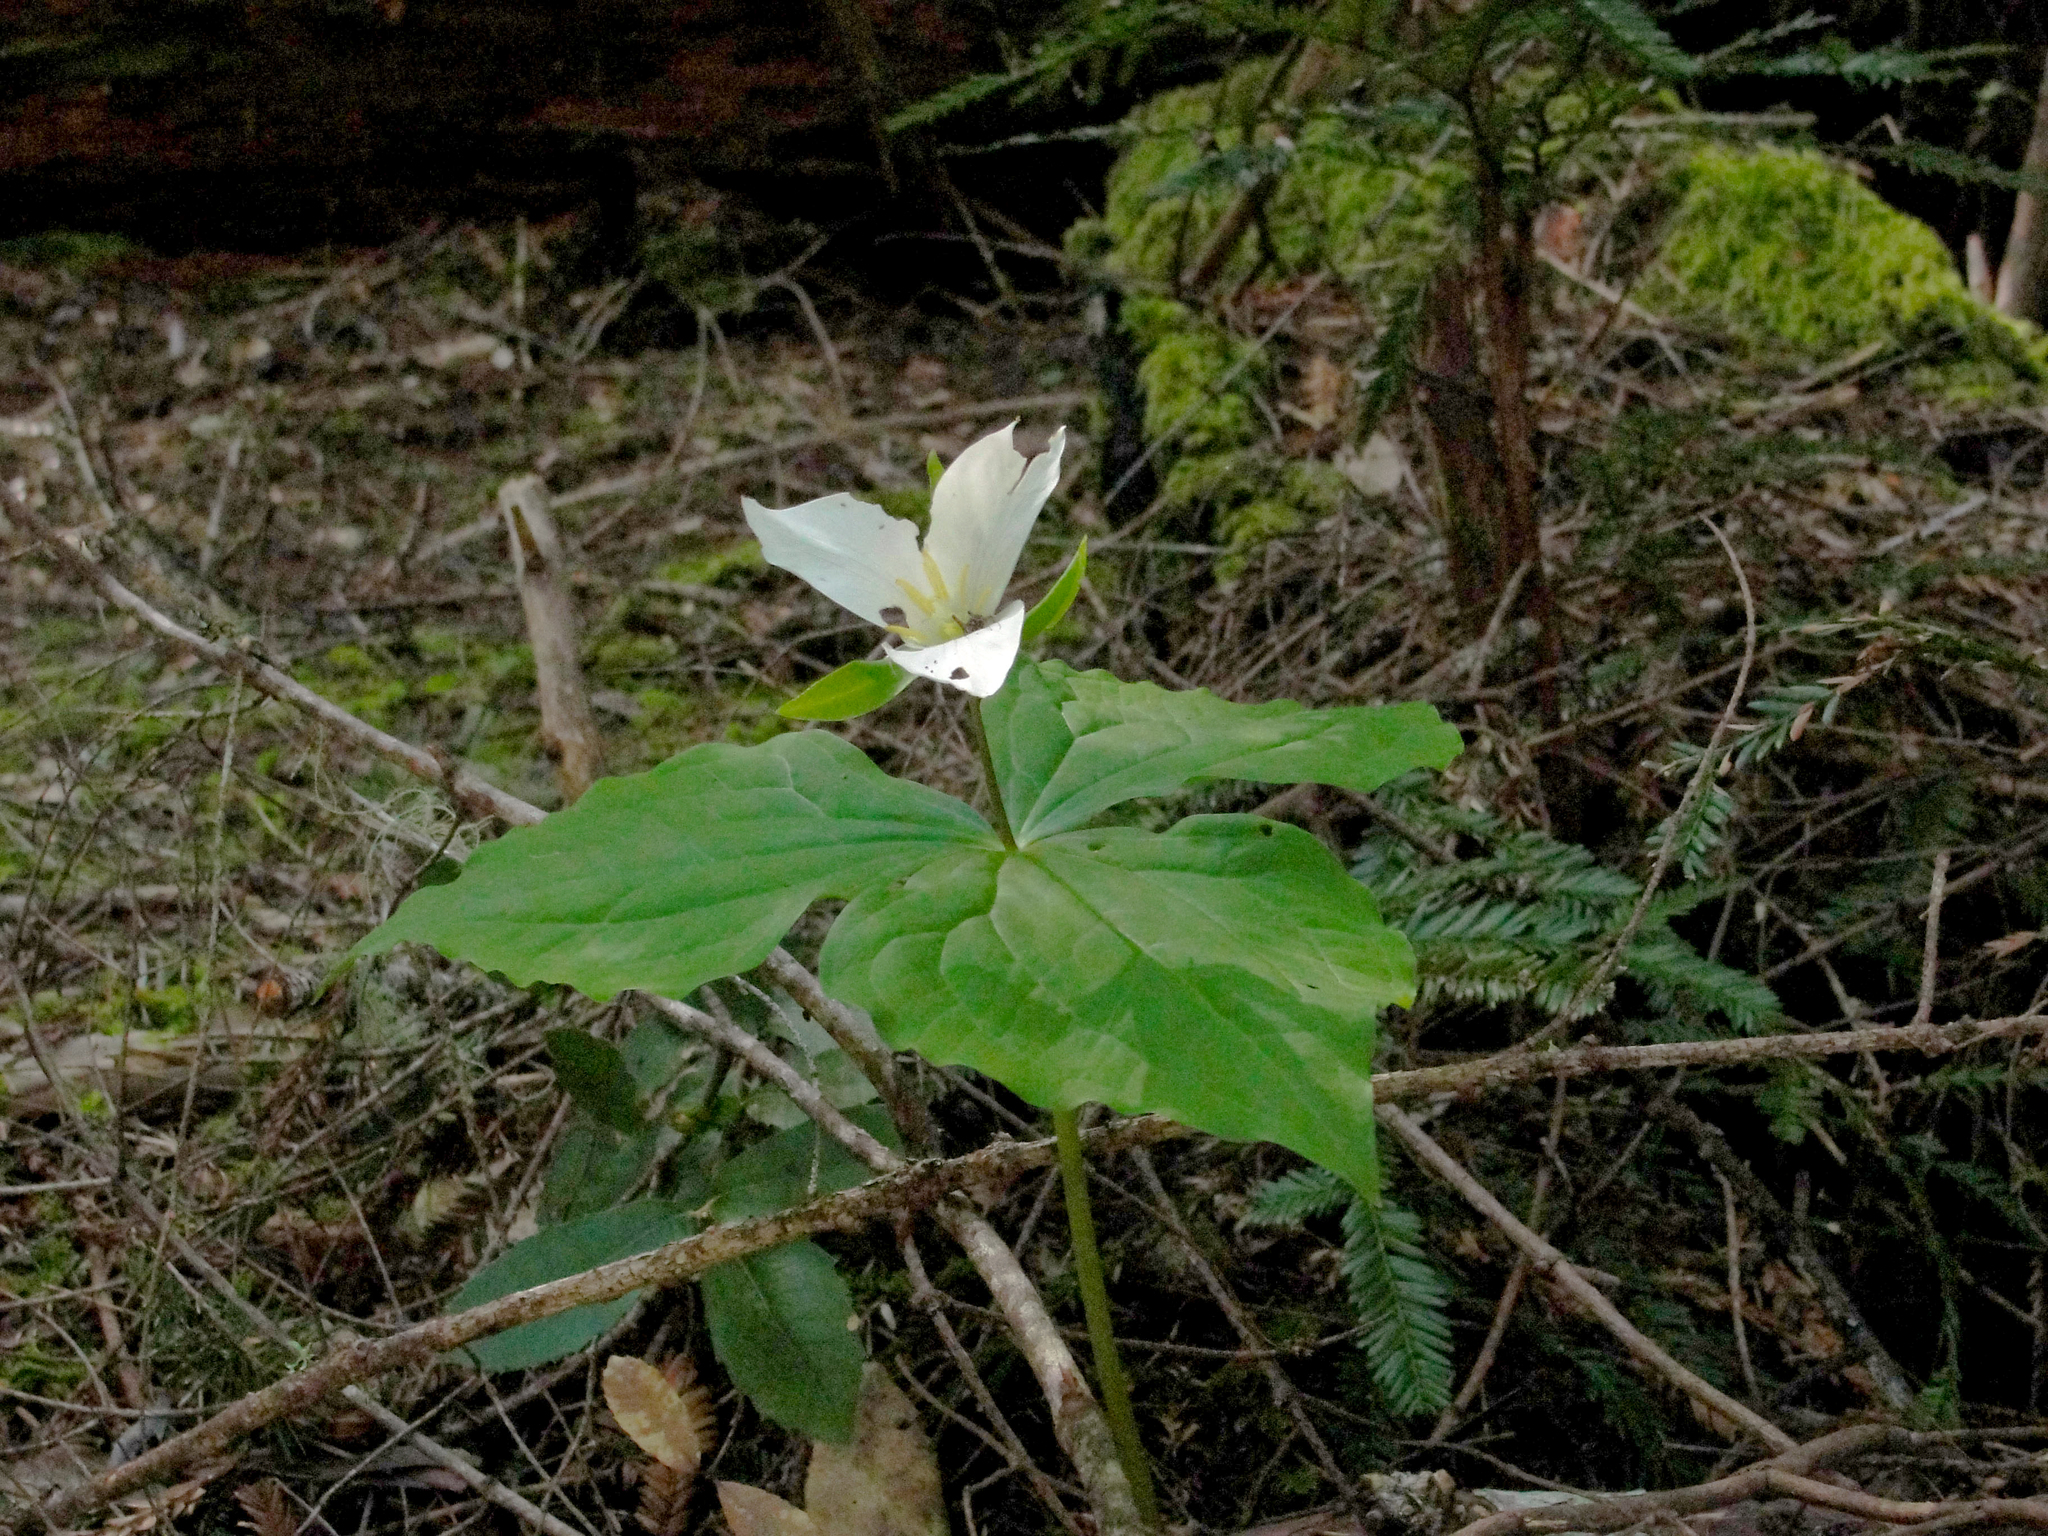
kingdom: Plantae
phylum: Tracheophyta
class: Liliopsida
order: Liliales
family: Melanthiaceae
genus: Trillium
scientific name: Trillium ovatum
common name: Pacific trillium
